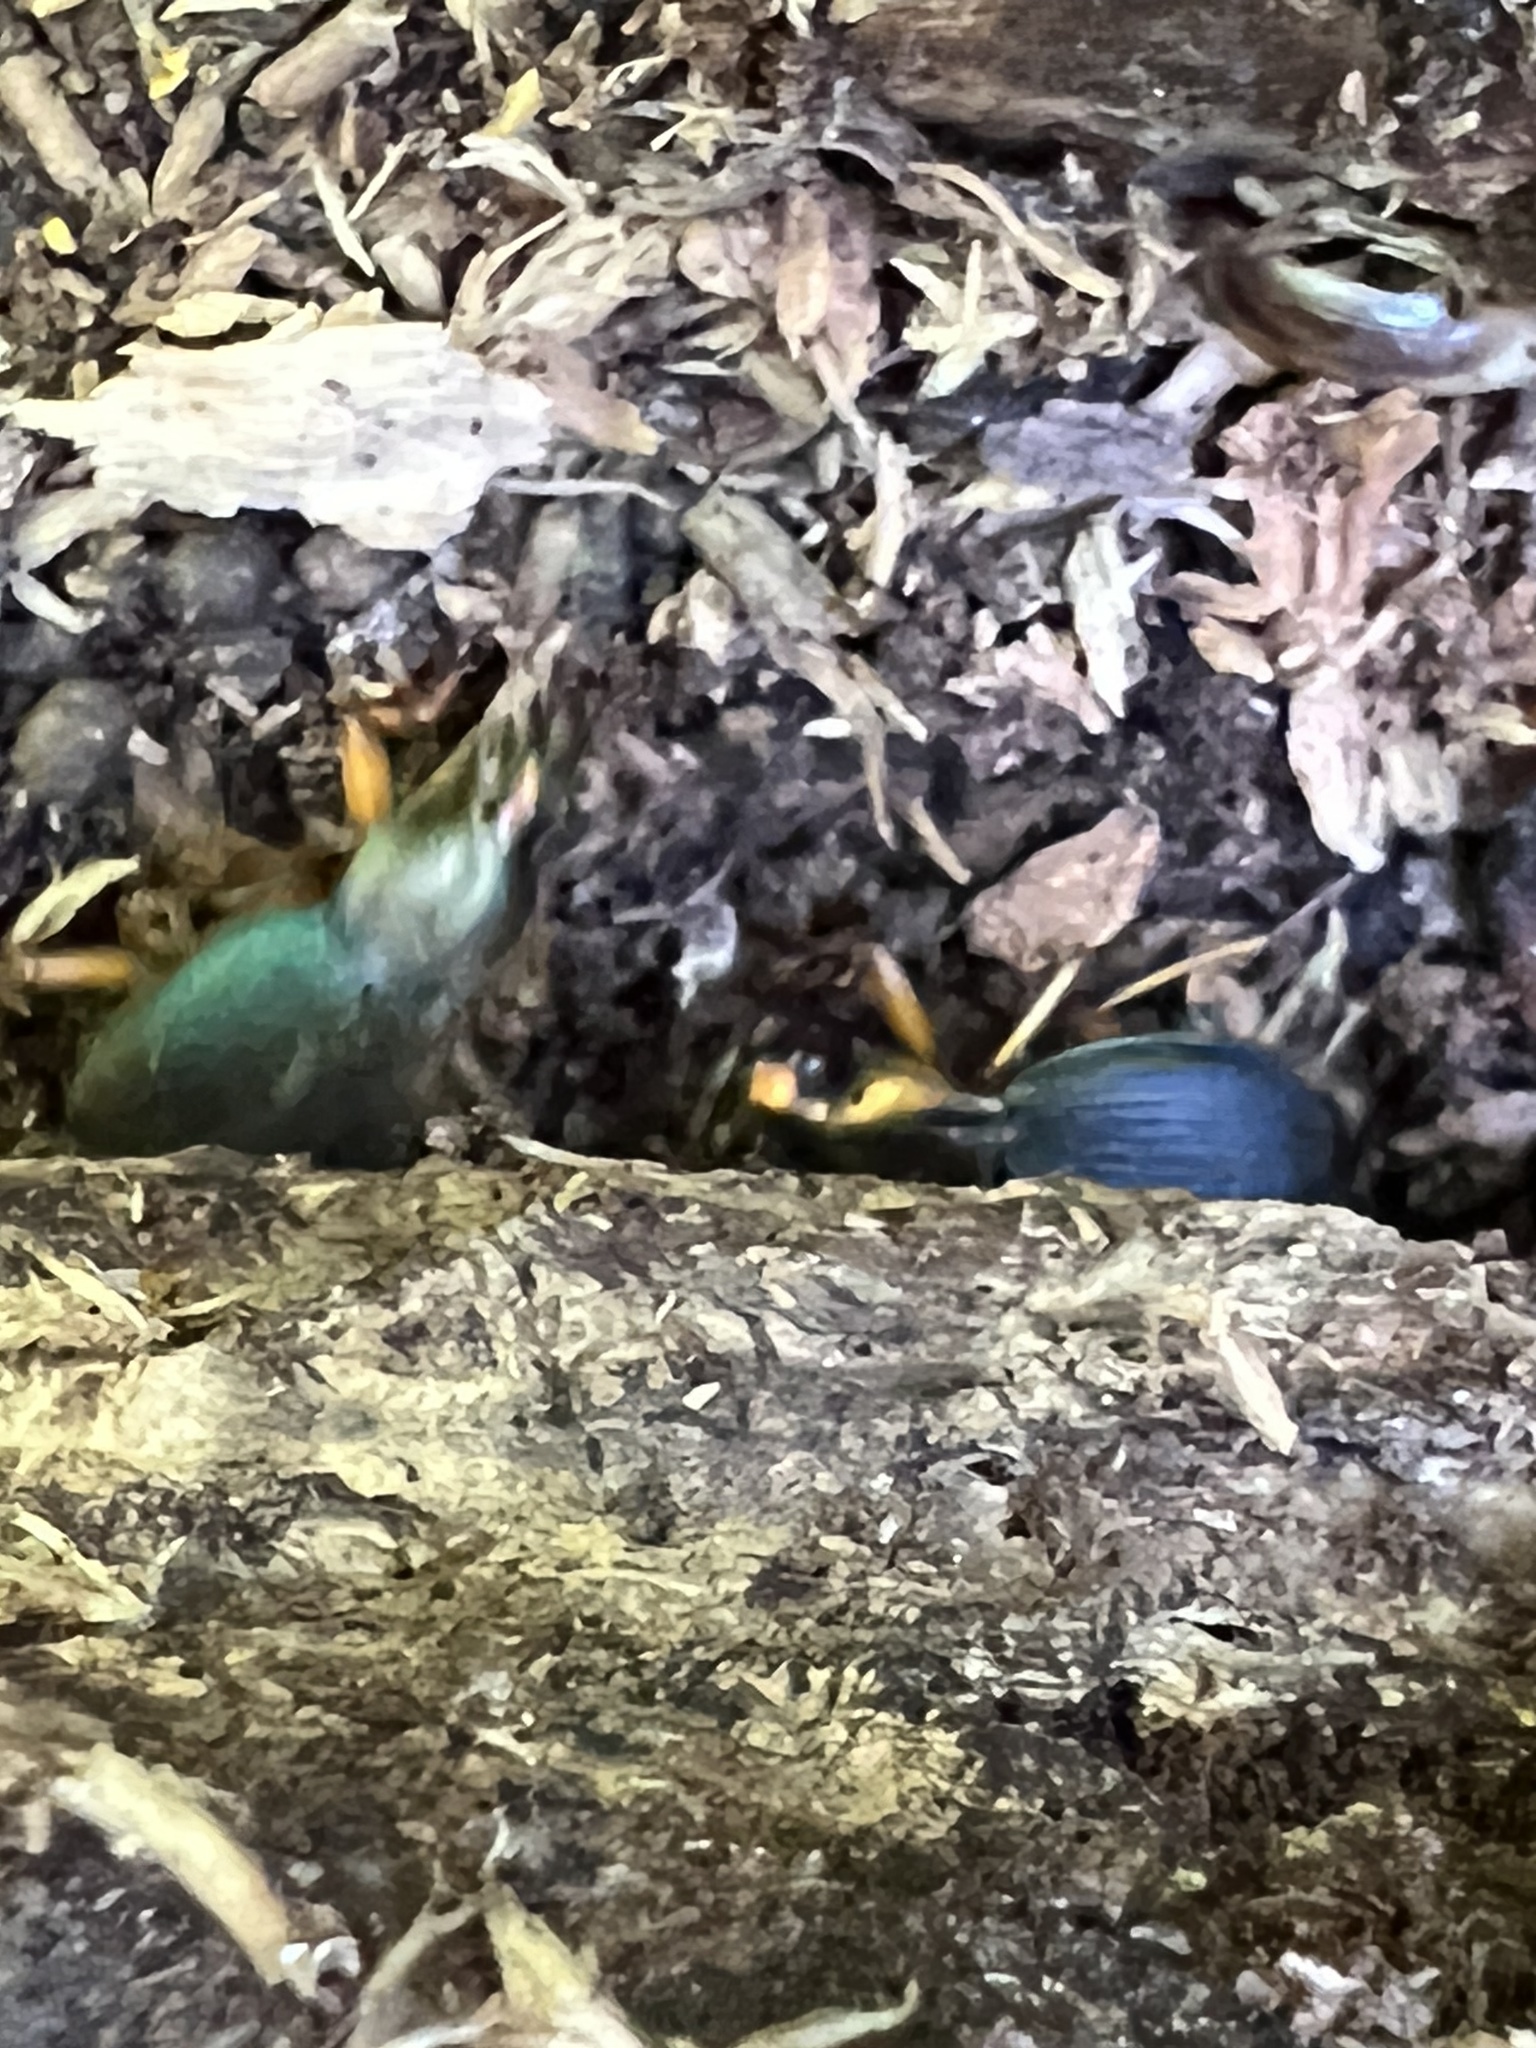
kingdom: Animalia
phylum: Arthropoda
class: Insecta
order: Coleoptera
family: Carabidae
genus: Chlaenius
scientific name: Chlaenius aestivus
